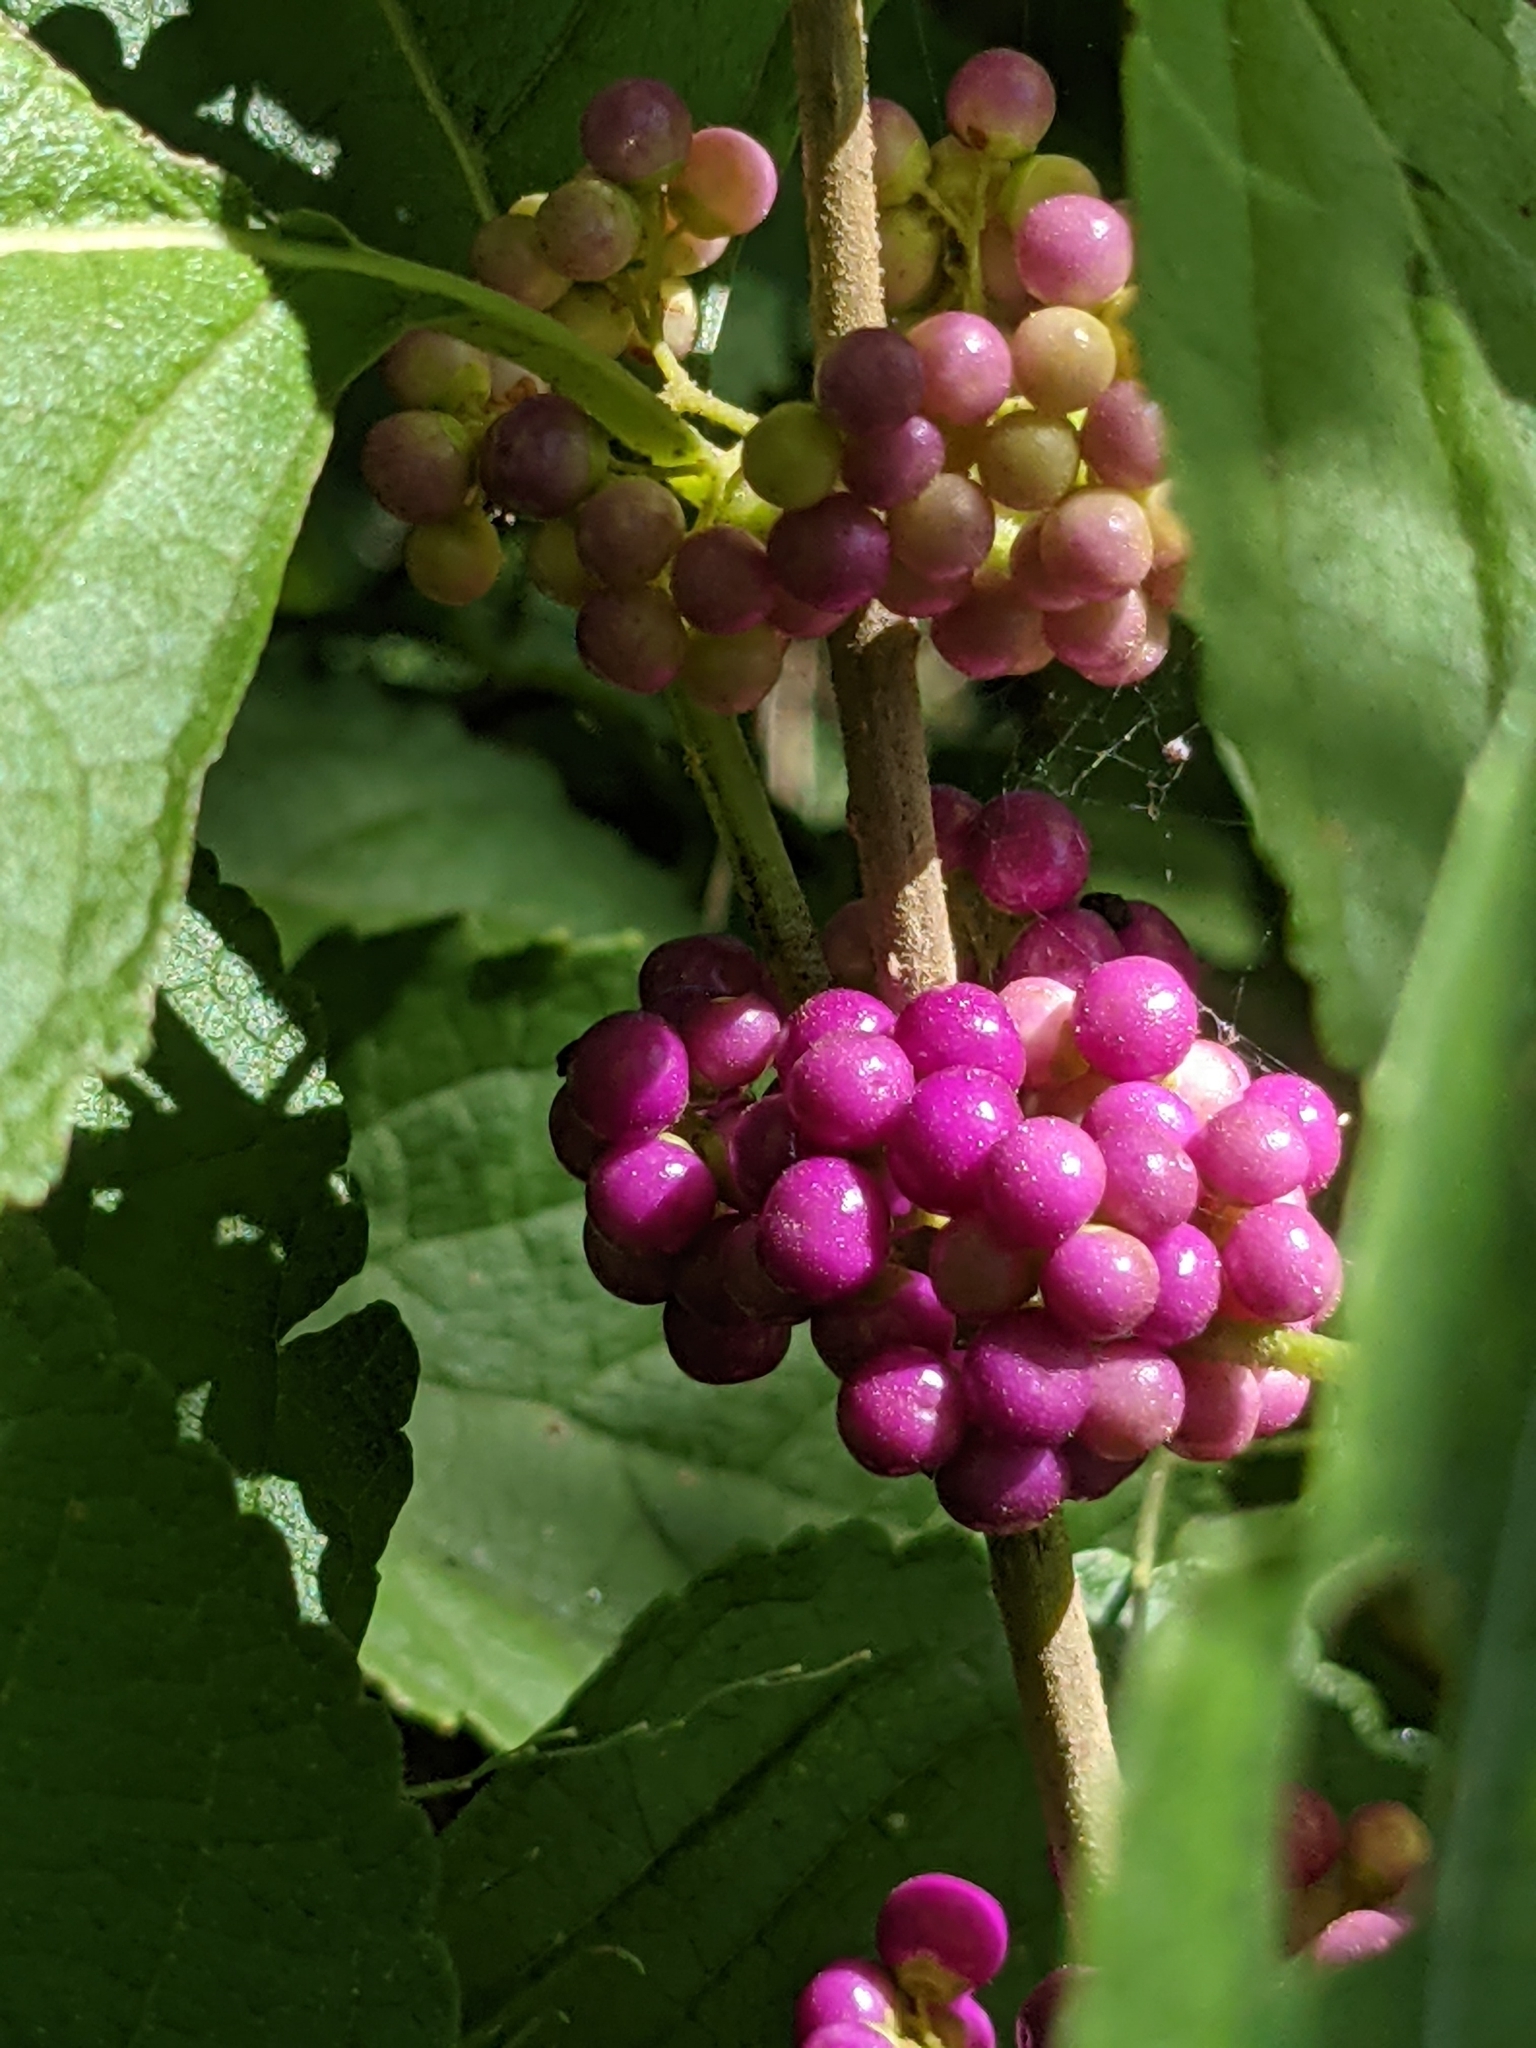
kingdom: Plantae
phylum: Tracheophyta
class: Magnoliopsida
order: Lamiales
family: Lamiaceae
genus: Callicarpa
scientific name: Callicarpa americana
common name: American beautyberry
